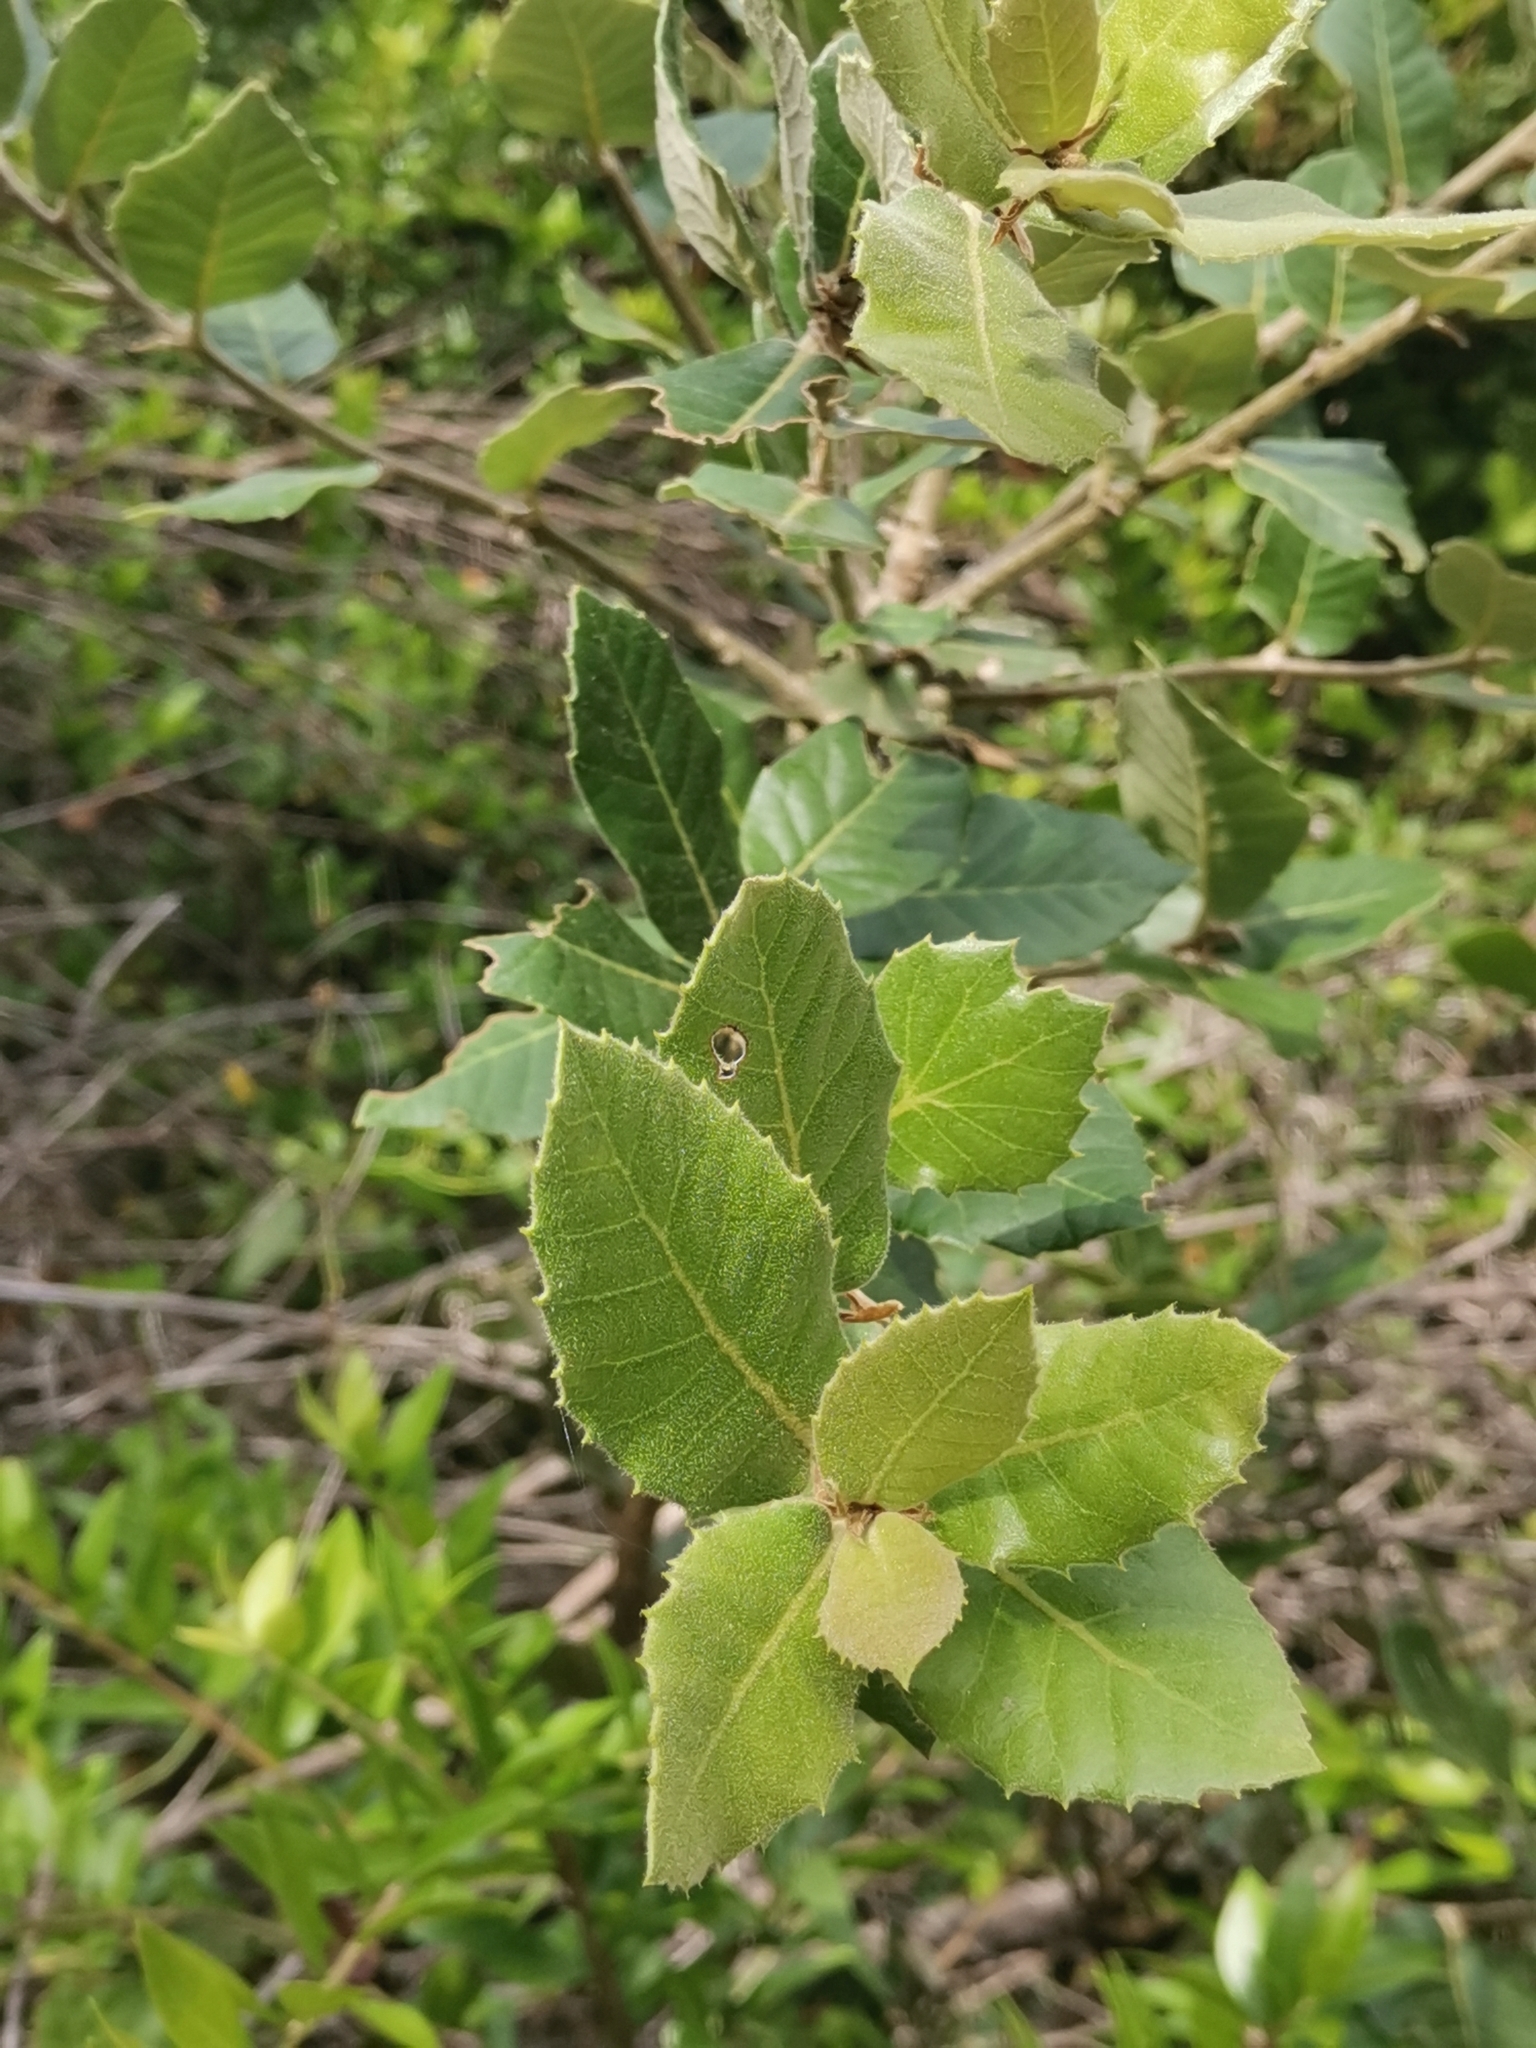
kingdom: Plantae
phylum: Tracheophyta
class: Magnoliopsida
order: Fagales
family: Fagaceae
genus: Quercus
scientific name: Quercus ilex
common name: Evergreen oak
